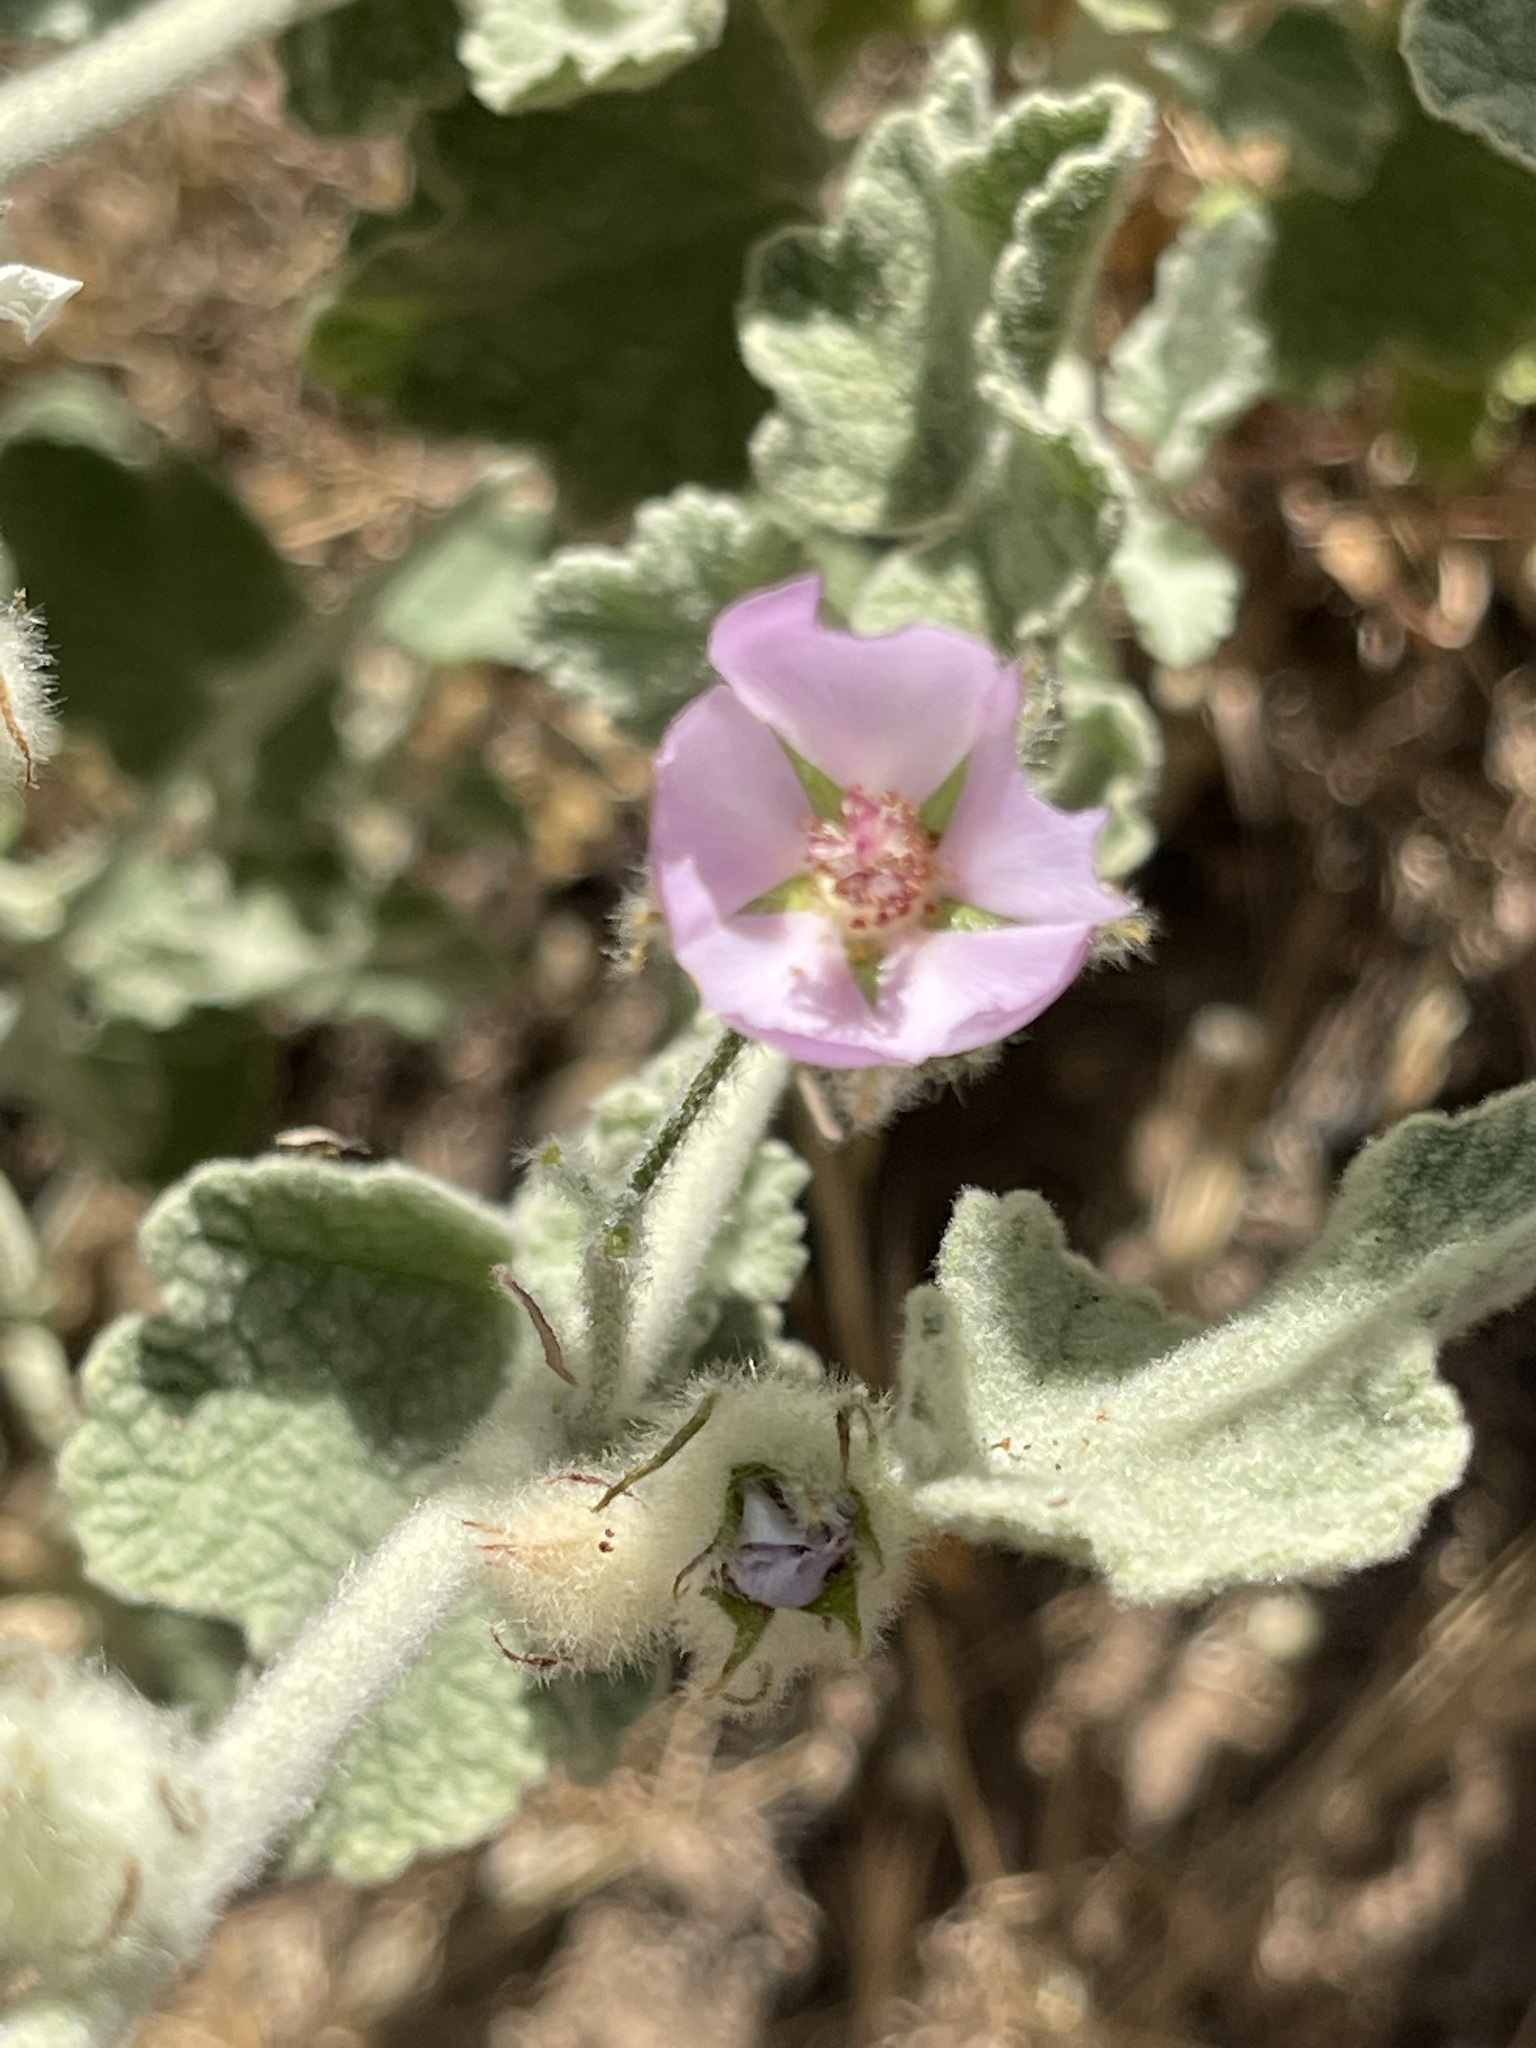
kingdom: Plantae
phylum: Tracheophyta
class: Magnoliopsida
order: Malvales
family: Malvaceae
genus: Malacothamnus
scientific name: Malacothamnus fremontii
